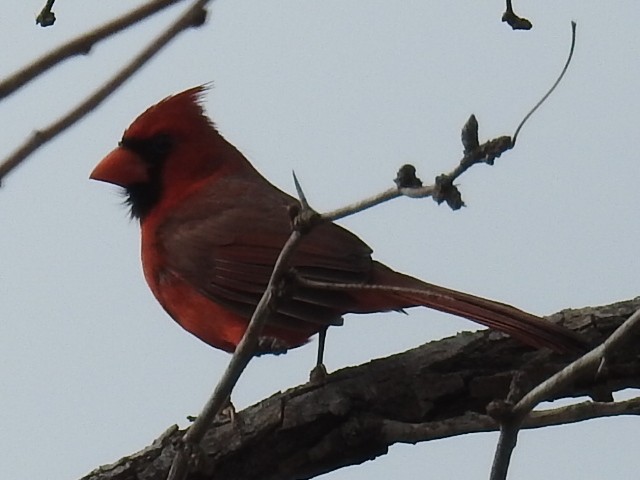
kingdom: Animalia
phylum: Chordata
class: Aves
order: Passeriformes
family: Cardinalidae
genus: Cardinalis
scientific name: Cardinalis cardinalis
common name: Northern cardinal
